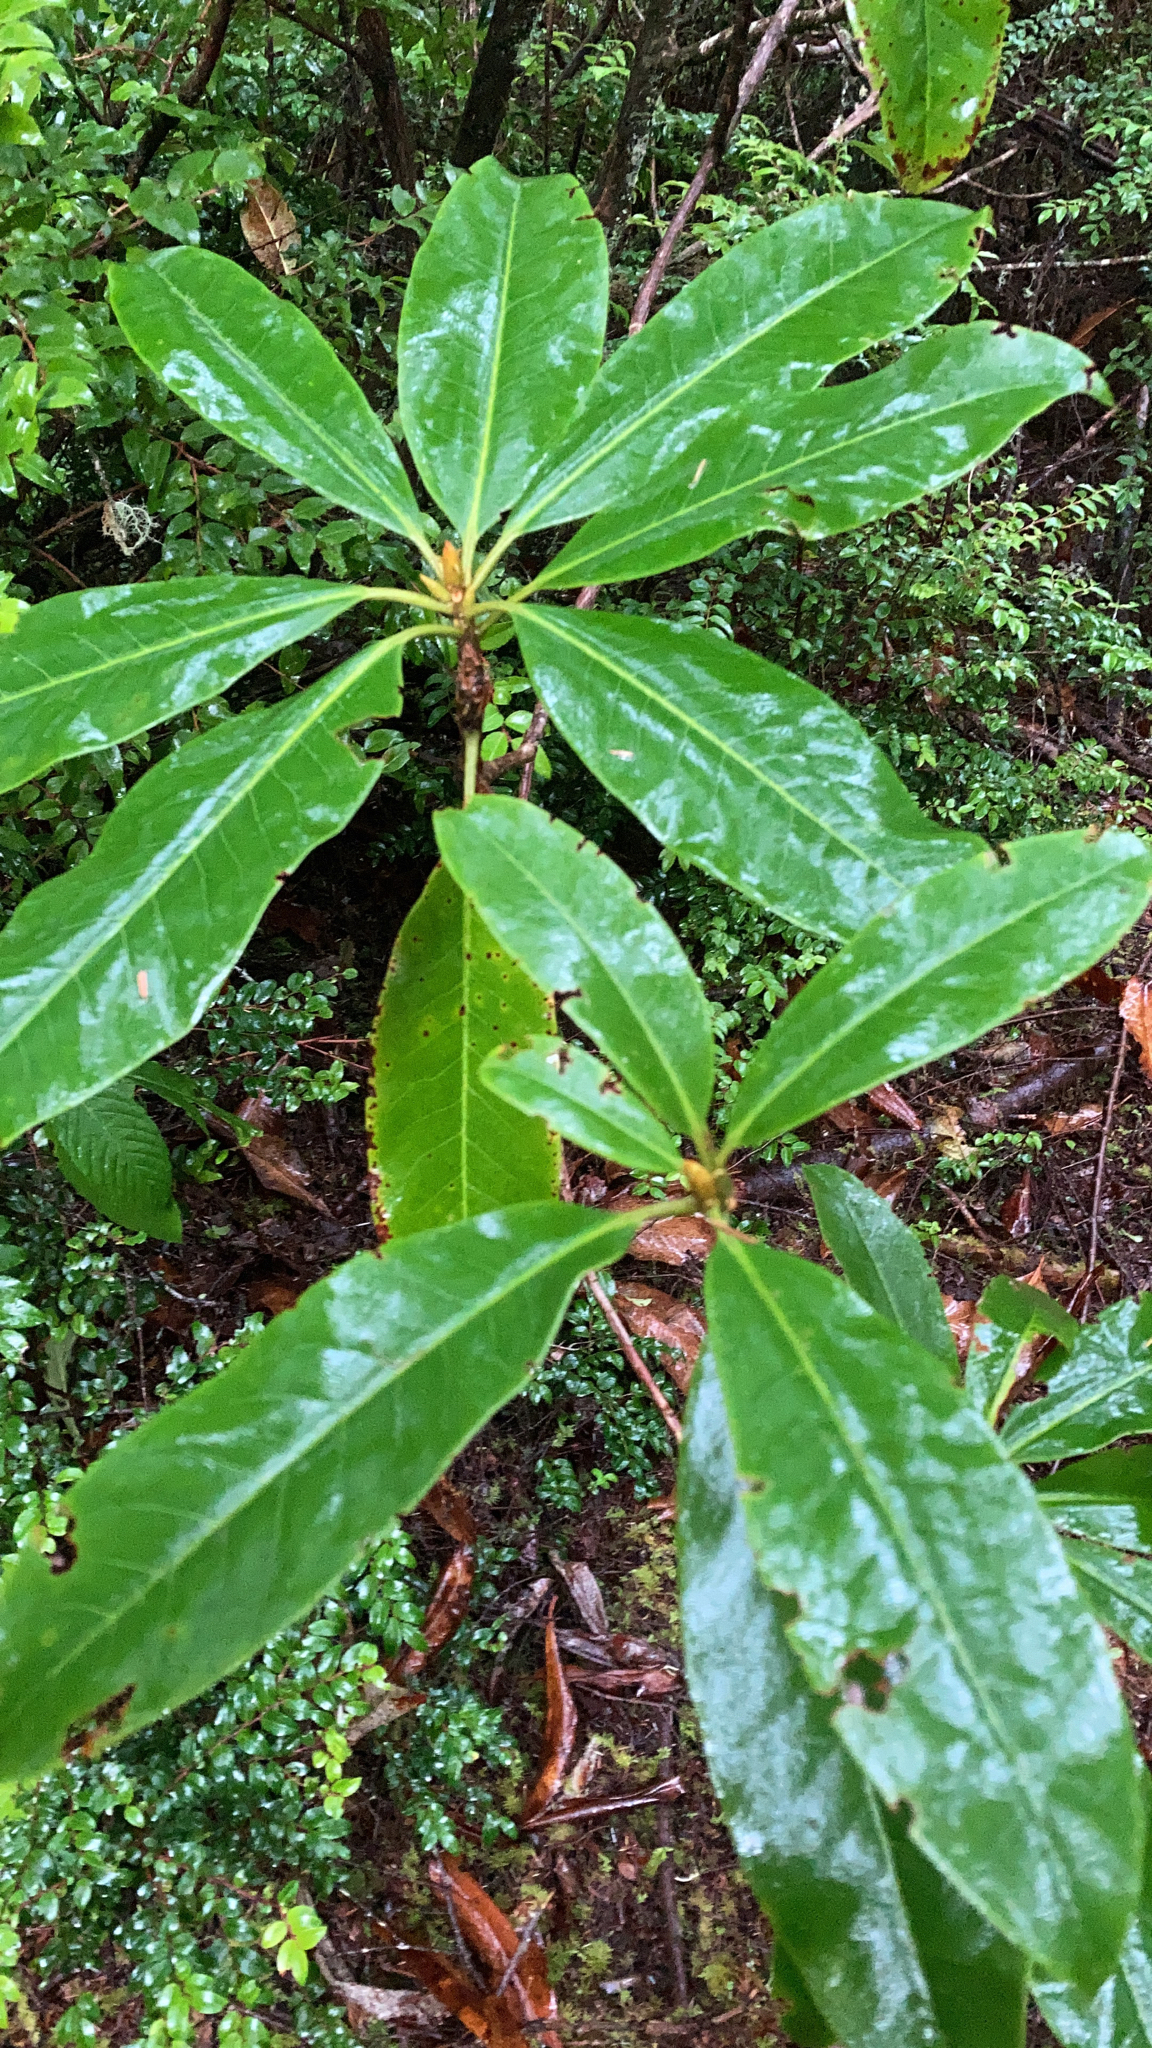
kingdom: Plantae
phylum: Tracheophyta
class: Magnoliopsida
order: Ericales
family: Ericaceae
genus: Rhododendron
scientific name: Rhododendron macrophyllum
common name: California rose bay
